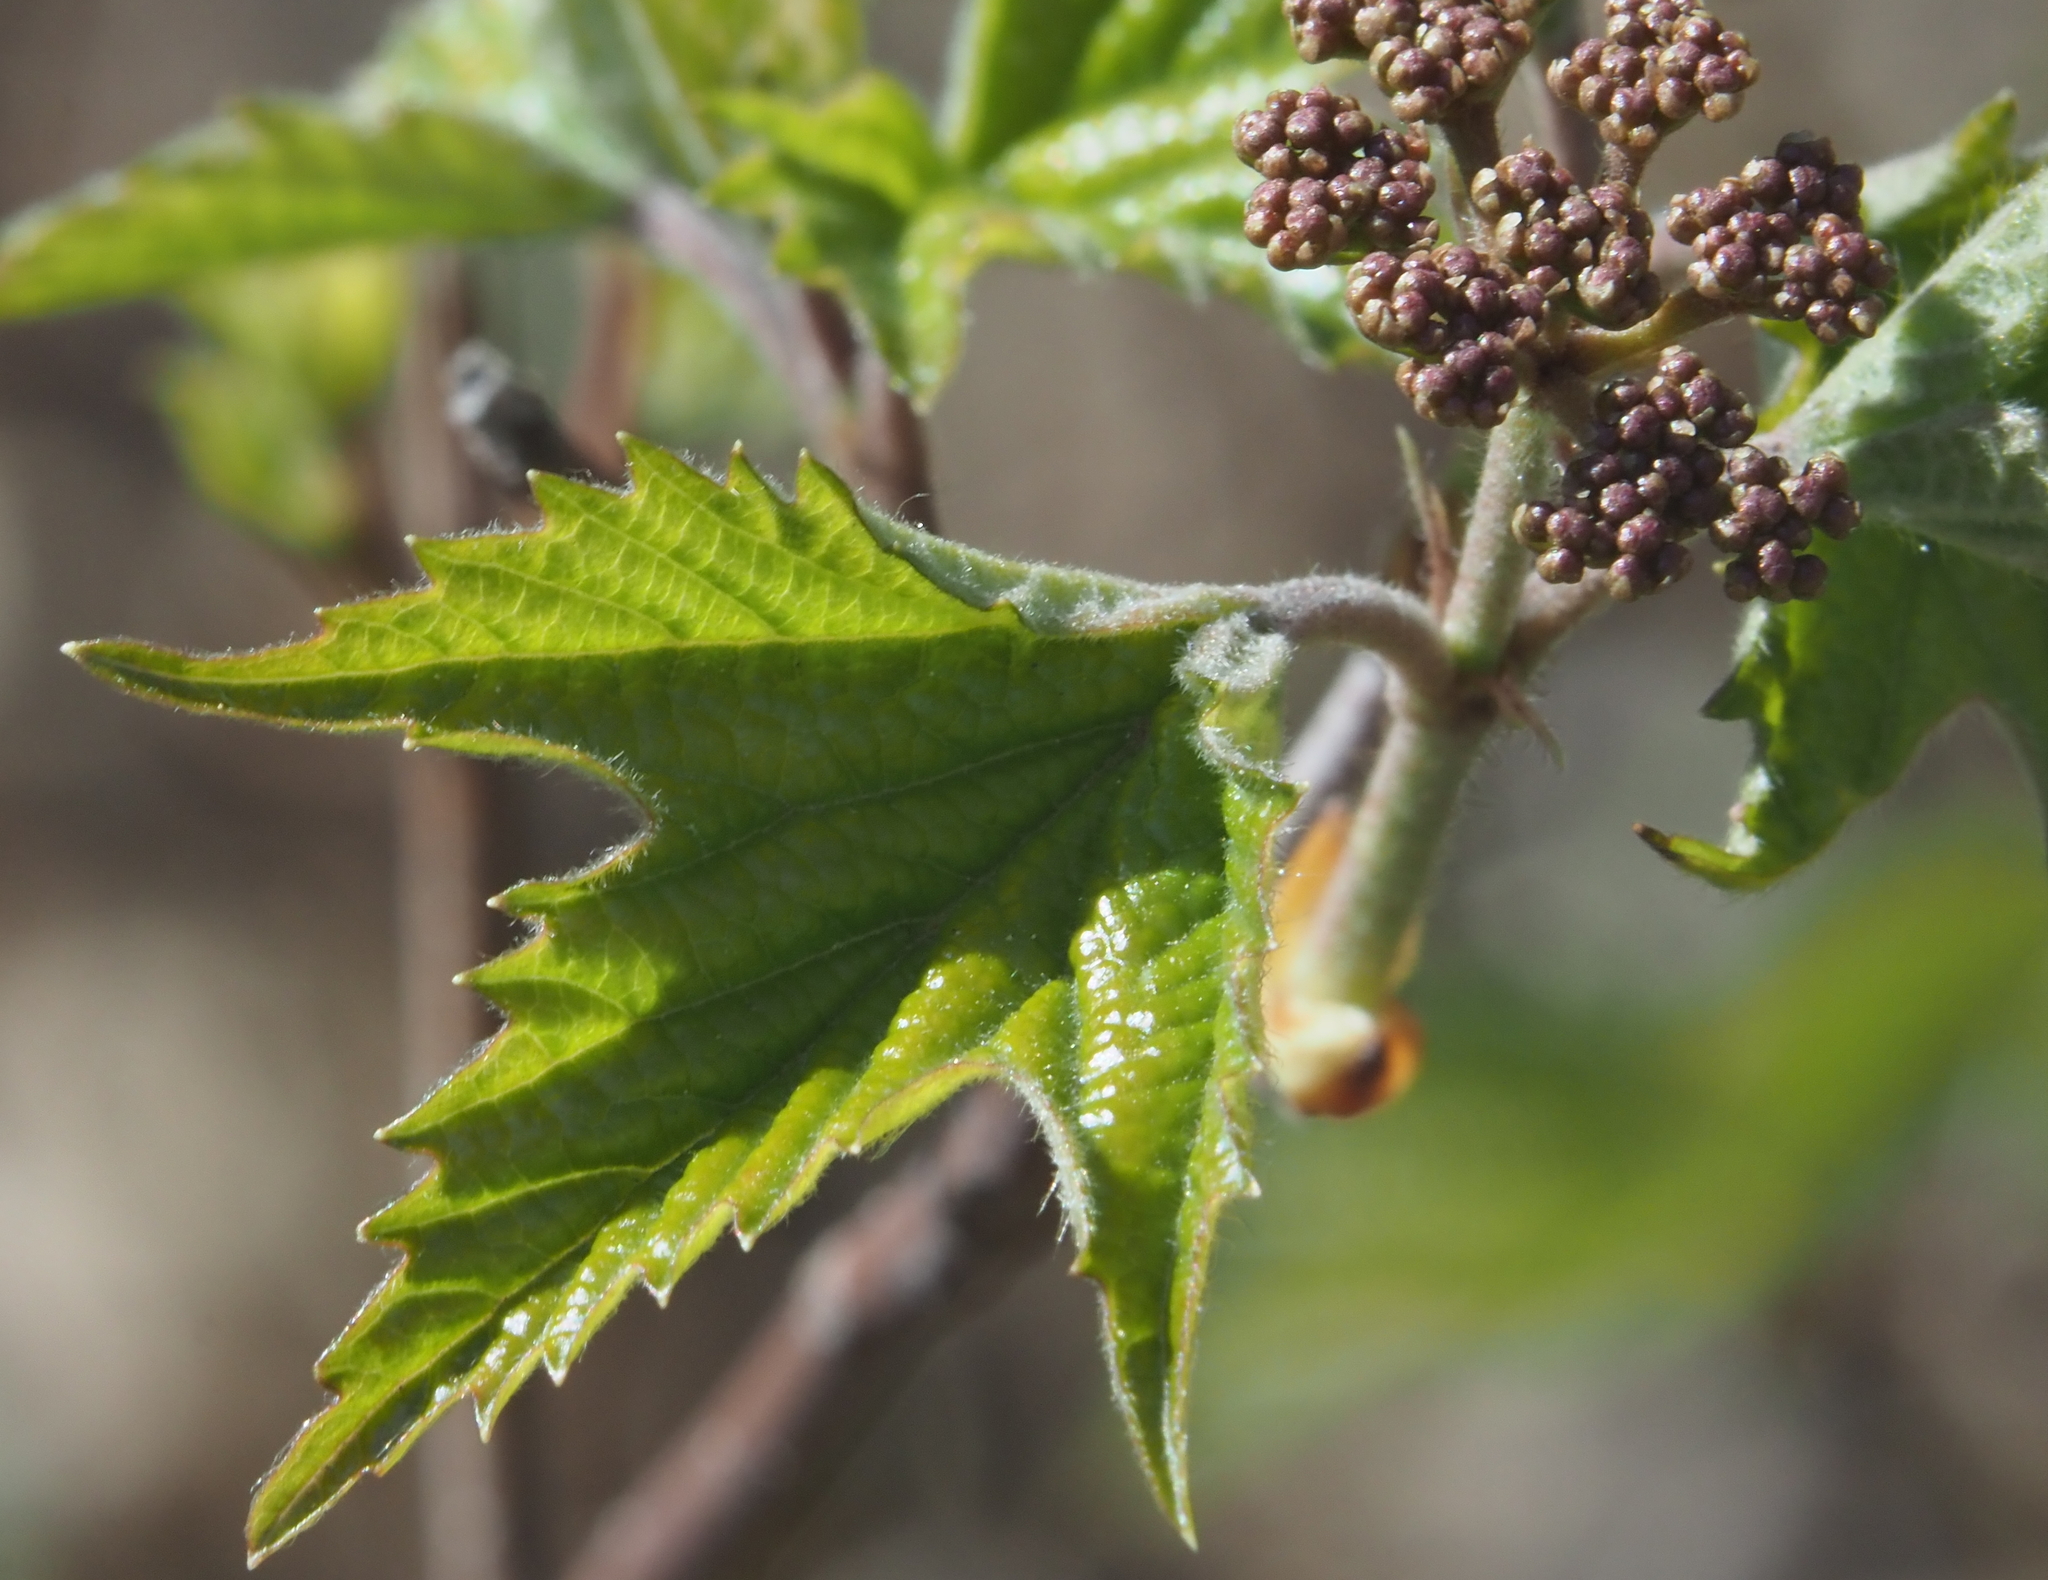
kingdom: Plantae
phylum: Tracheophyta
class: Magnoliopsida
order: Dipsacales
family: Viburnaceae
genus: Viburnum
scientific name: Viburnum acerifolium
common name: Dockmackie
